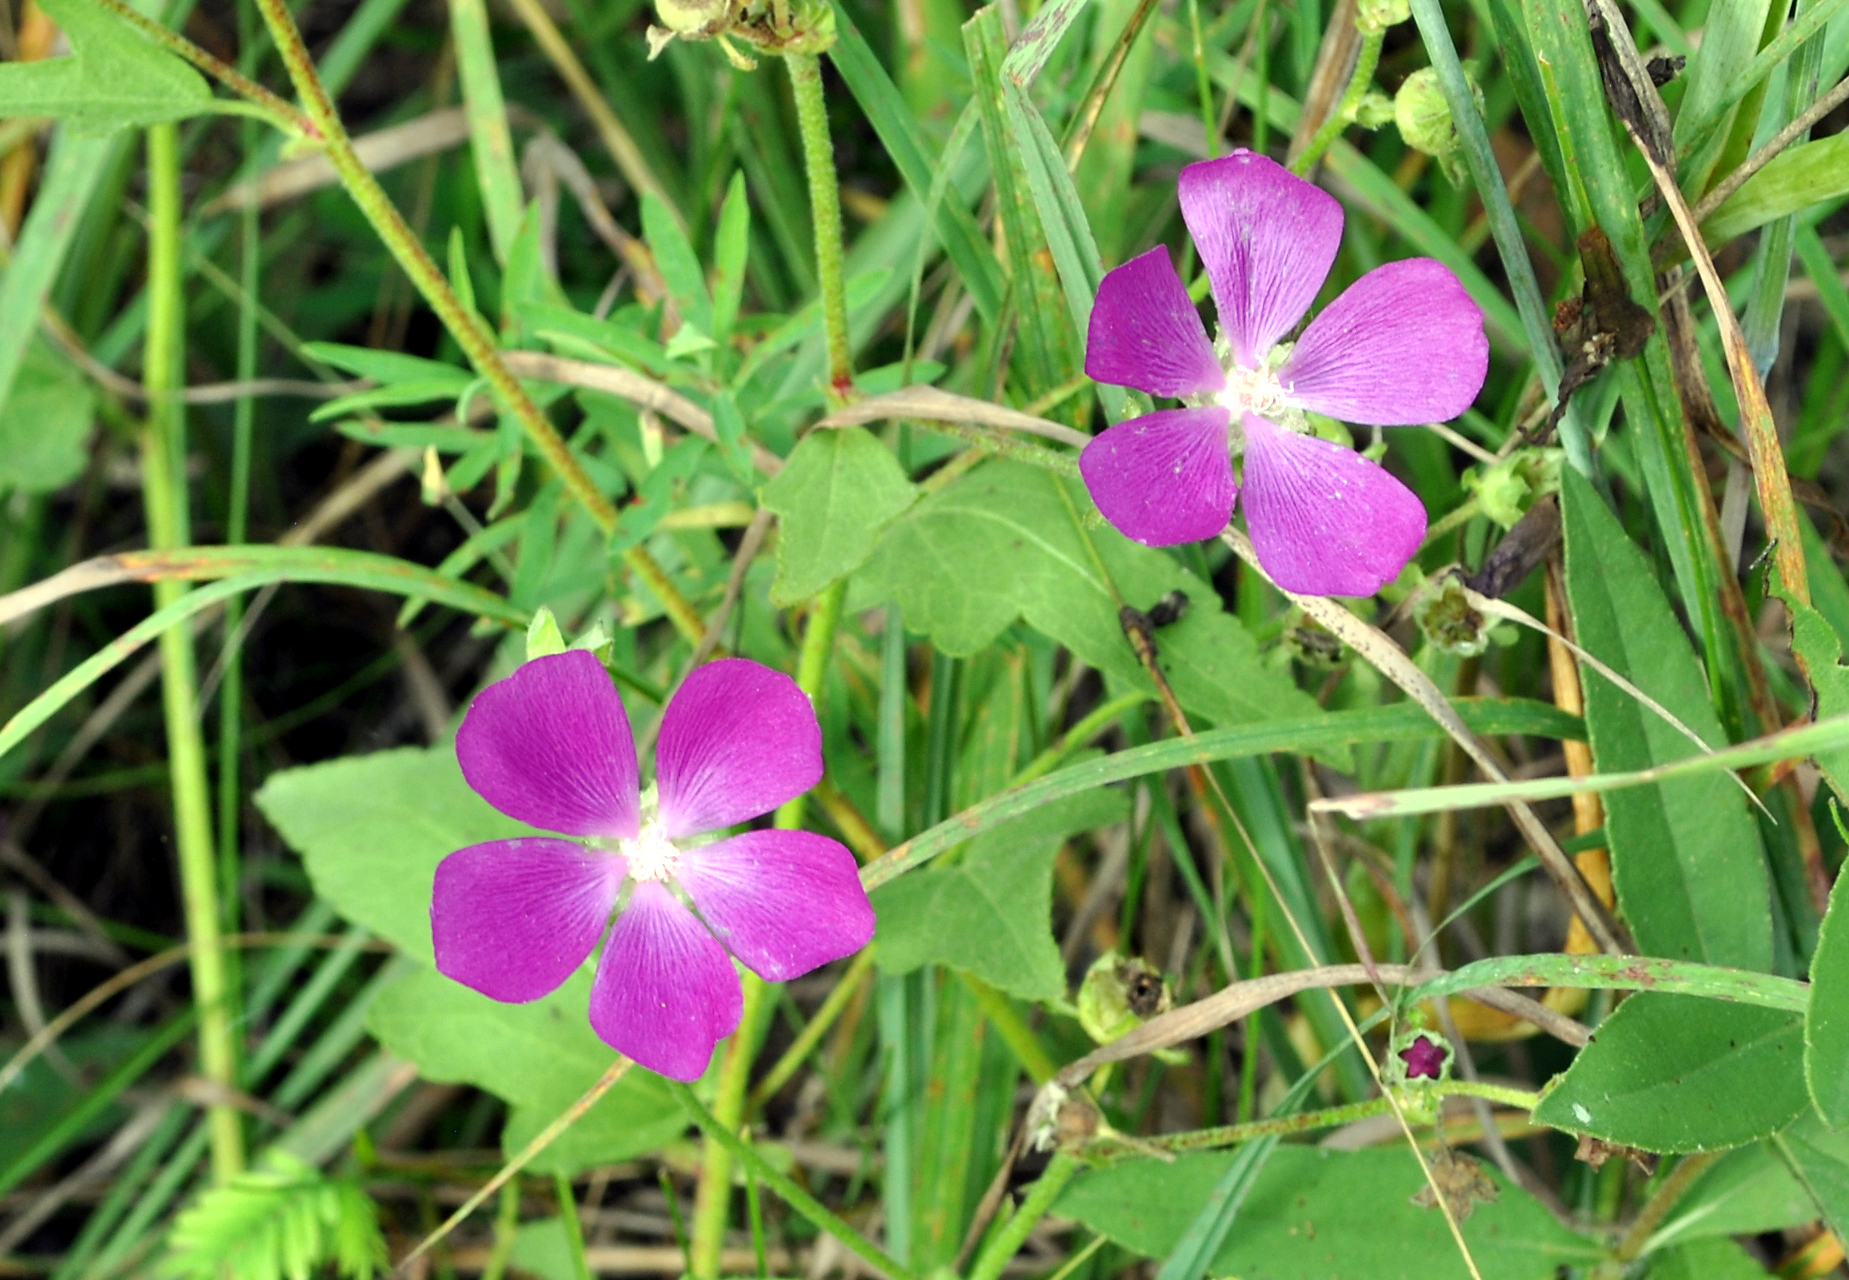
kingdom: Plantae
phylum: Tracheophyta
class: Magnoliopsida
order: Malvales
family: Malvaceae
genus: Callirhoe
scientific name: Callirhoe triangulata
